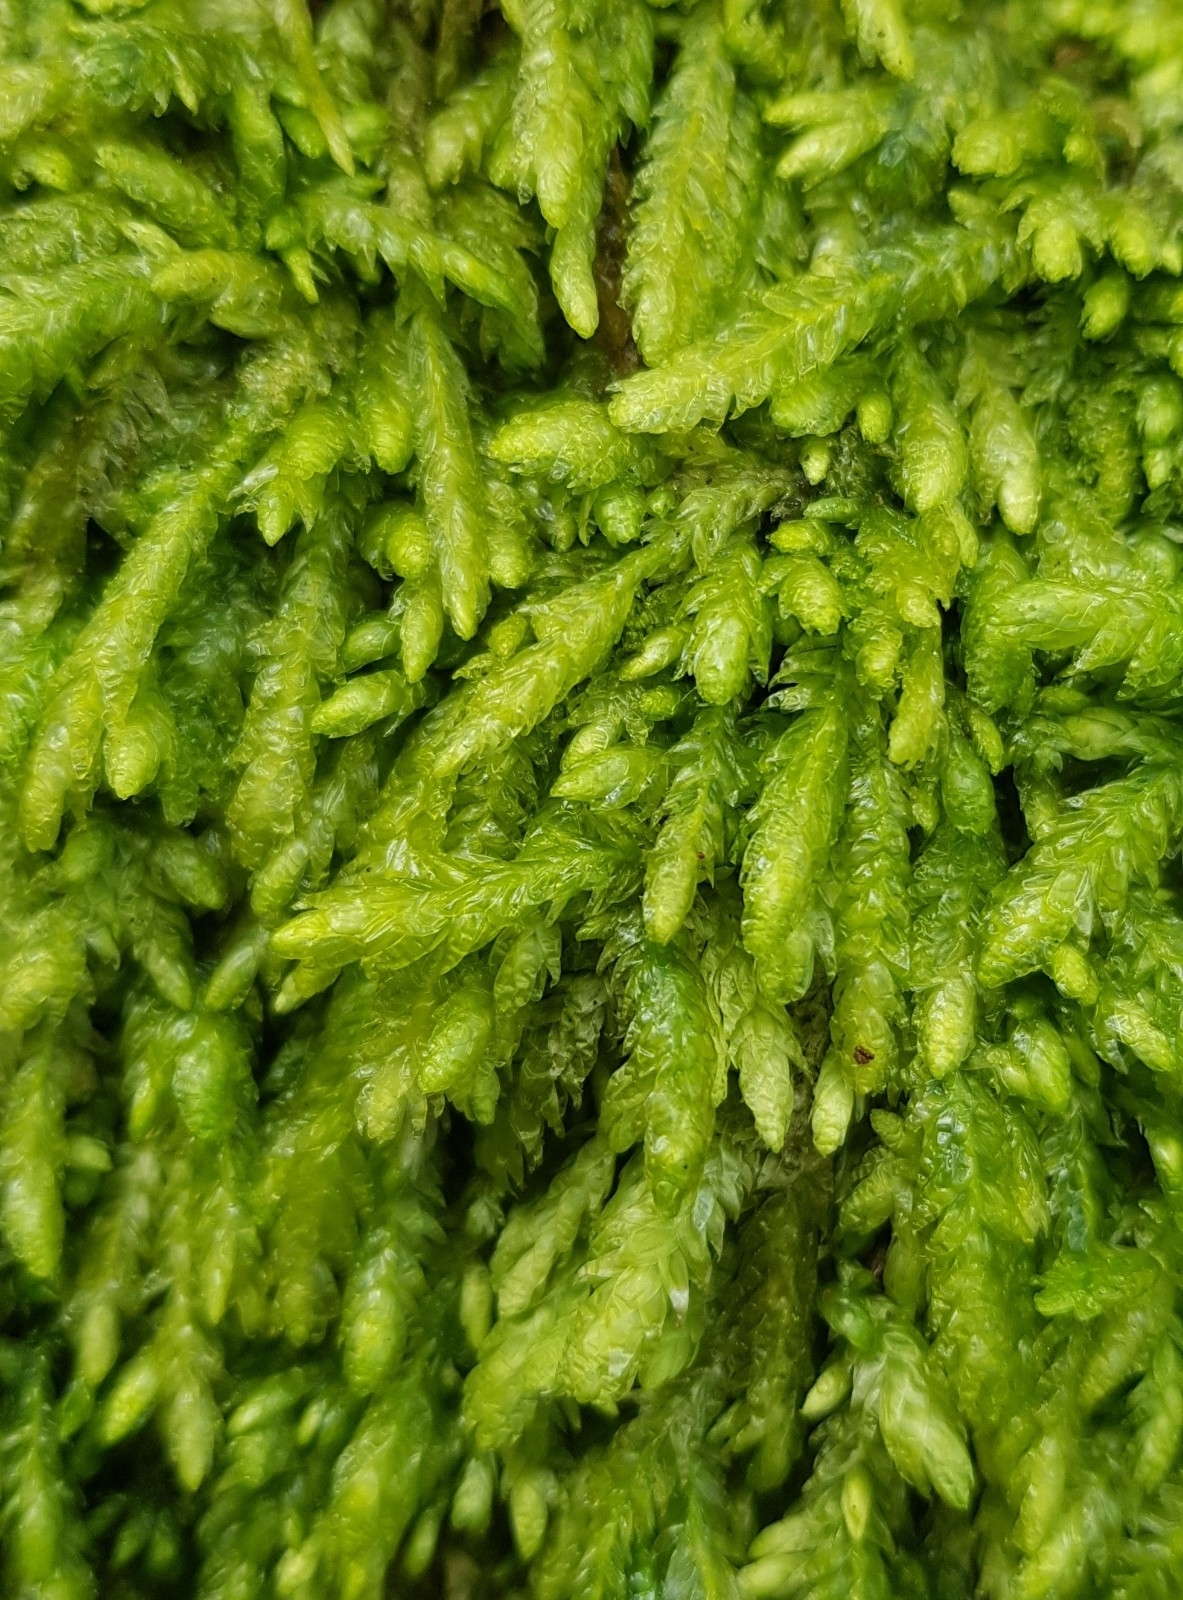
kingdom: Plantae
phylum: Bryophyta
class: Bryopsida
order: Hypnales
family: Plagiotheciaceae
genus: Plagiothecium
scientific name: Plagiothecium undulatum
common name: Waved silk-moss
